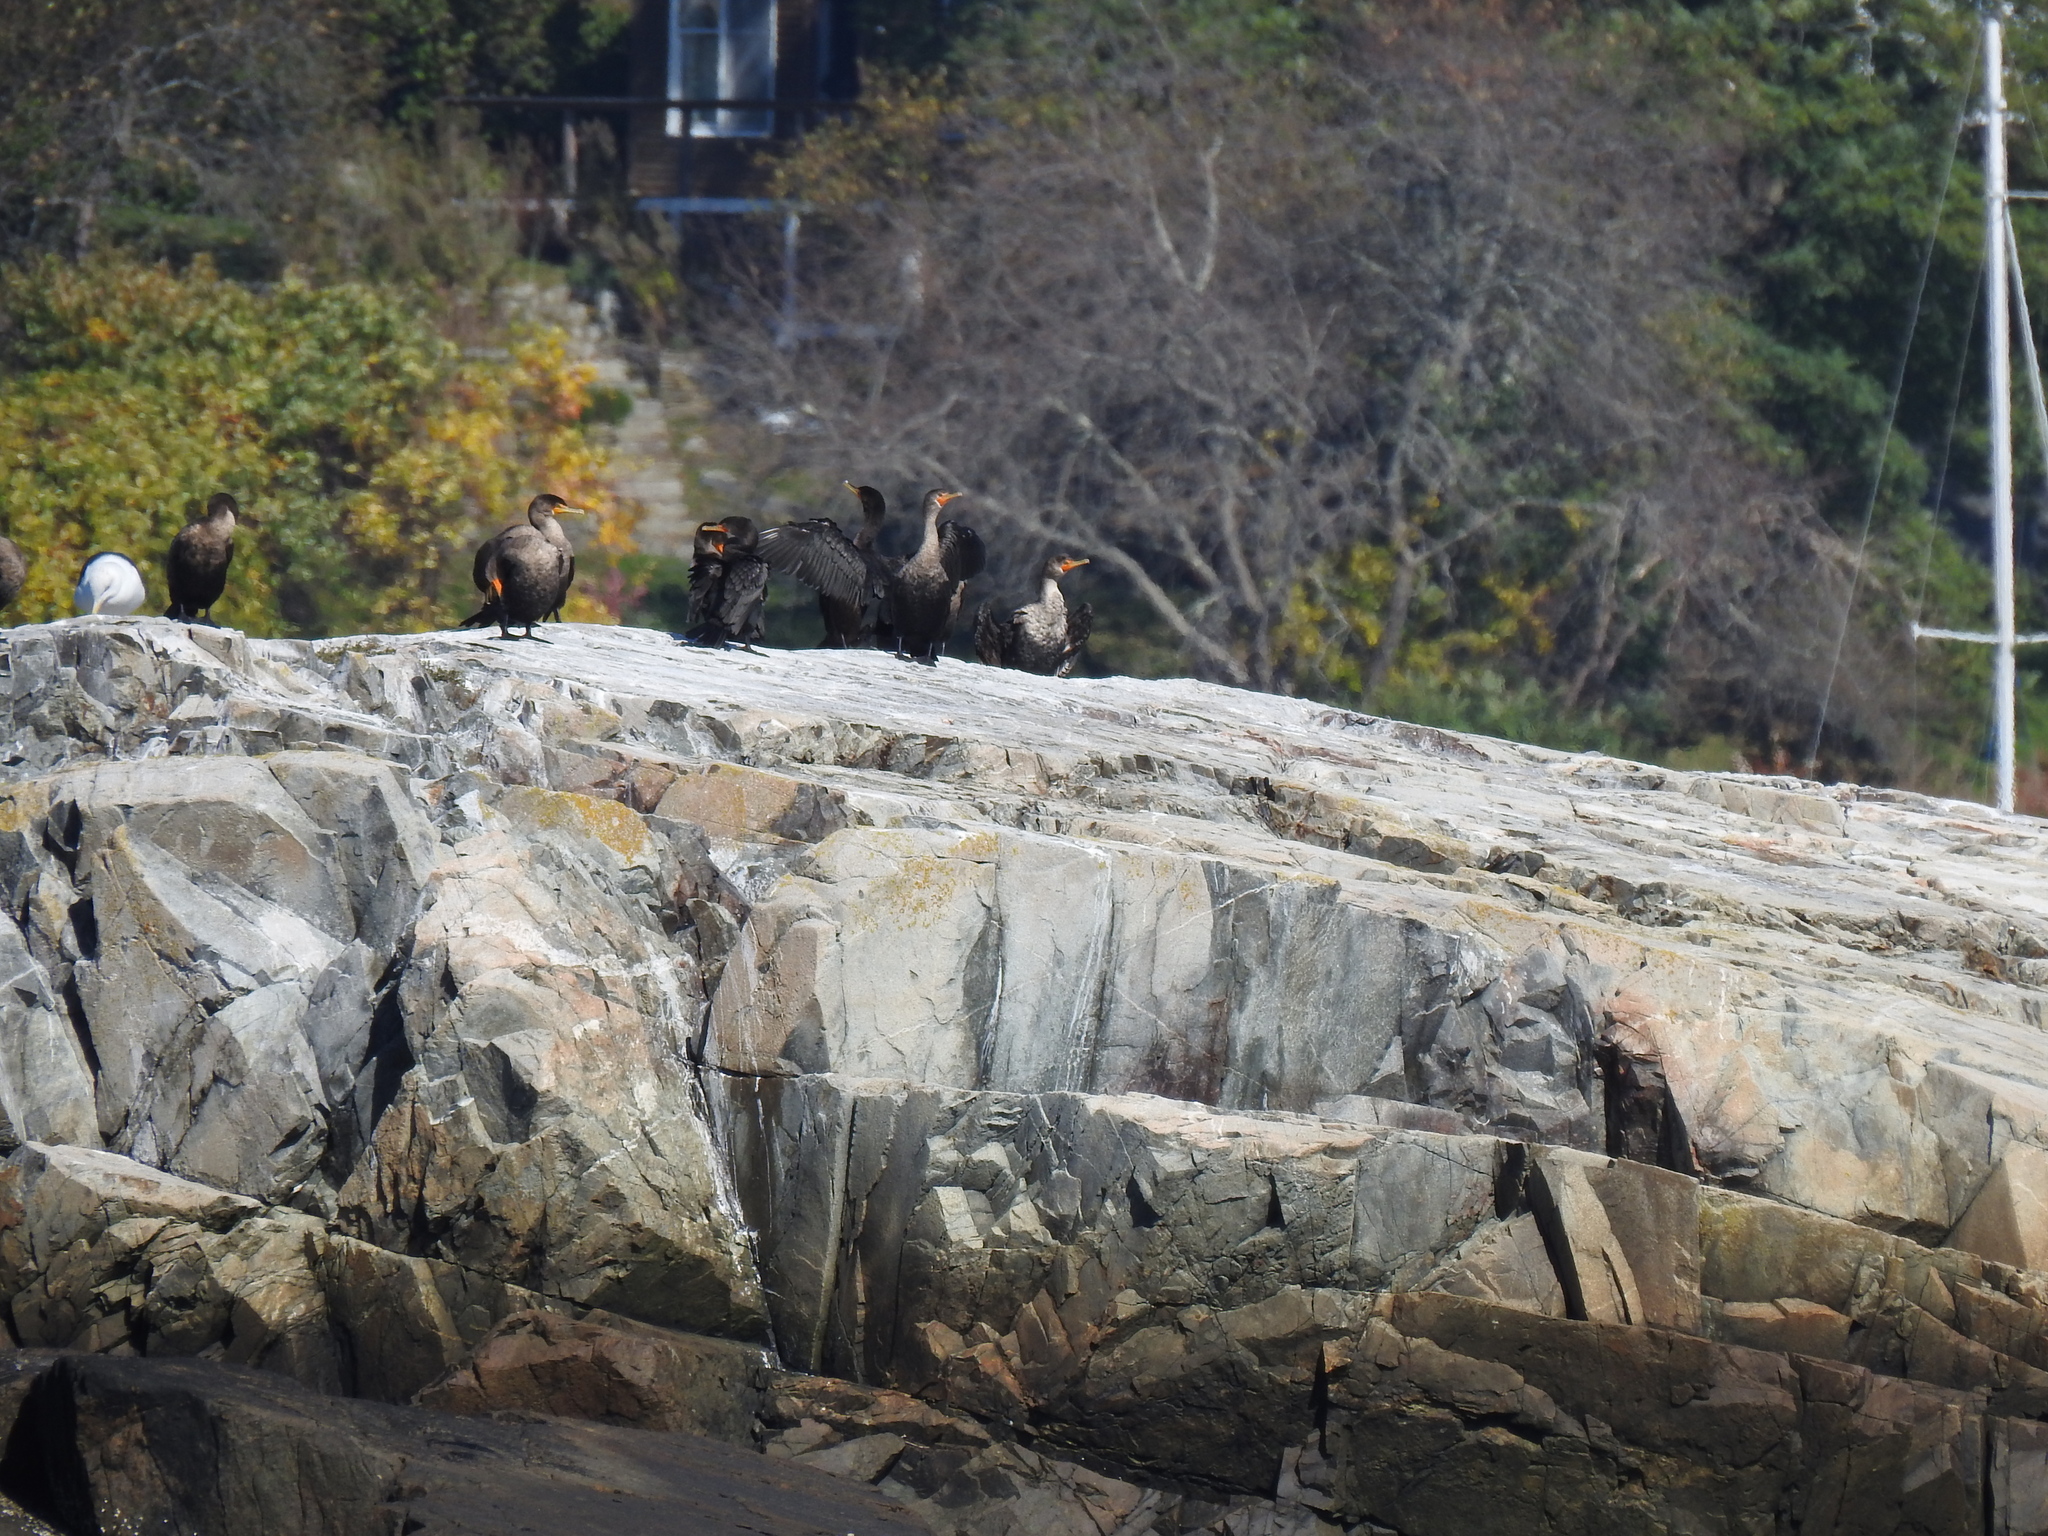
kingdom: Animalia
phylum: Chordata
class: Aves
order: Suliformes
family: Phalacrocoracidae
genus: Phalacrocorax
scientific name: Phalacrocorax auritus
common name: Double-crested cormorant
